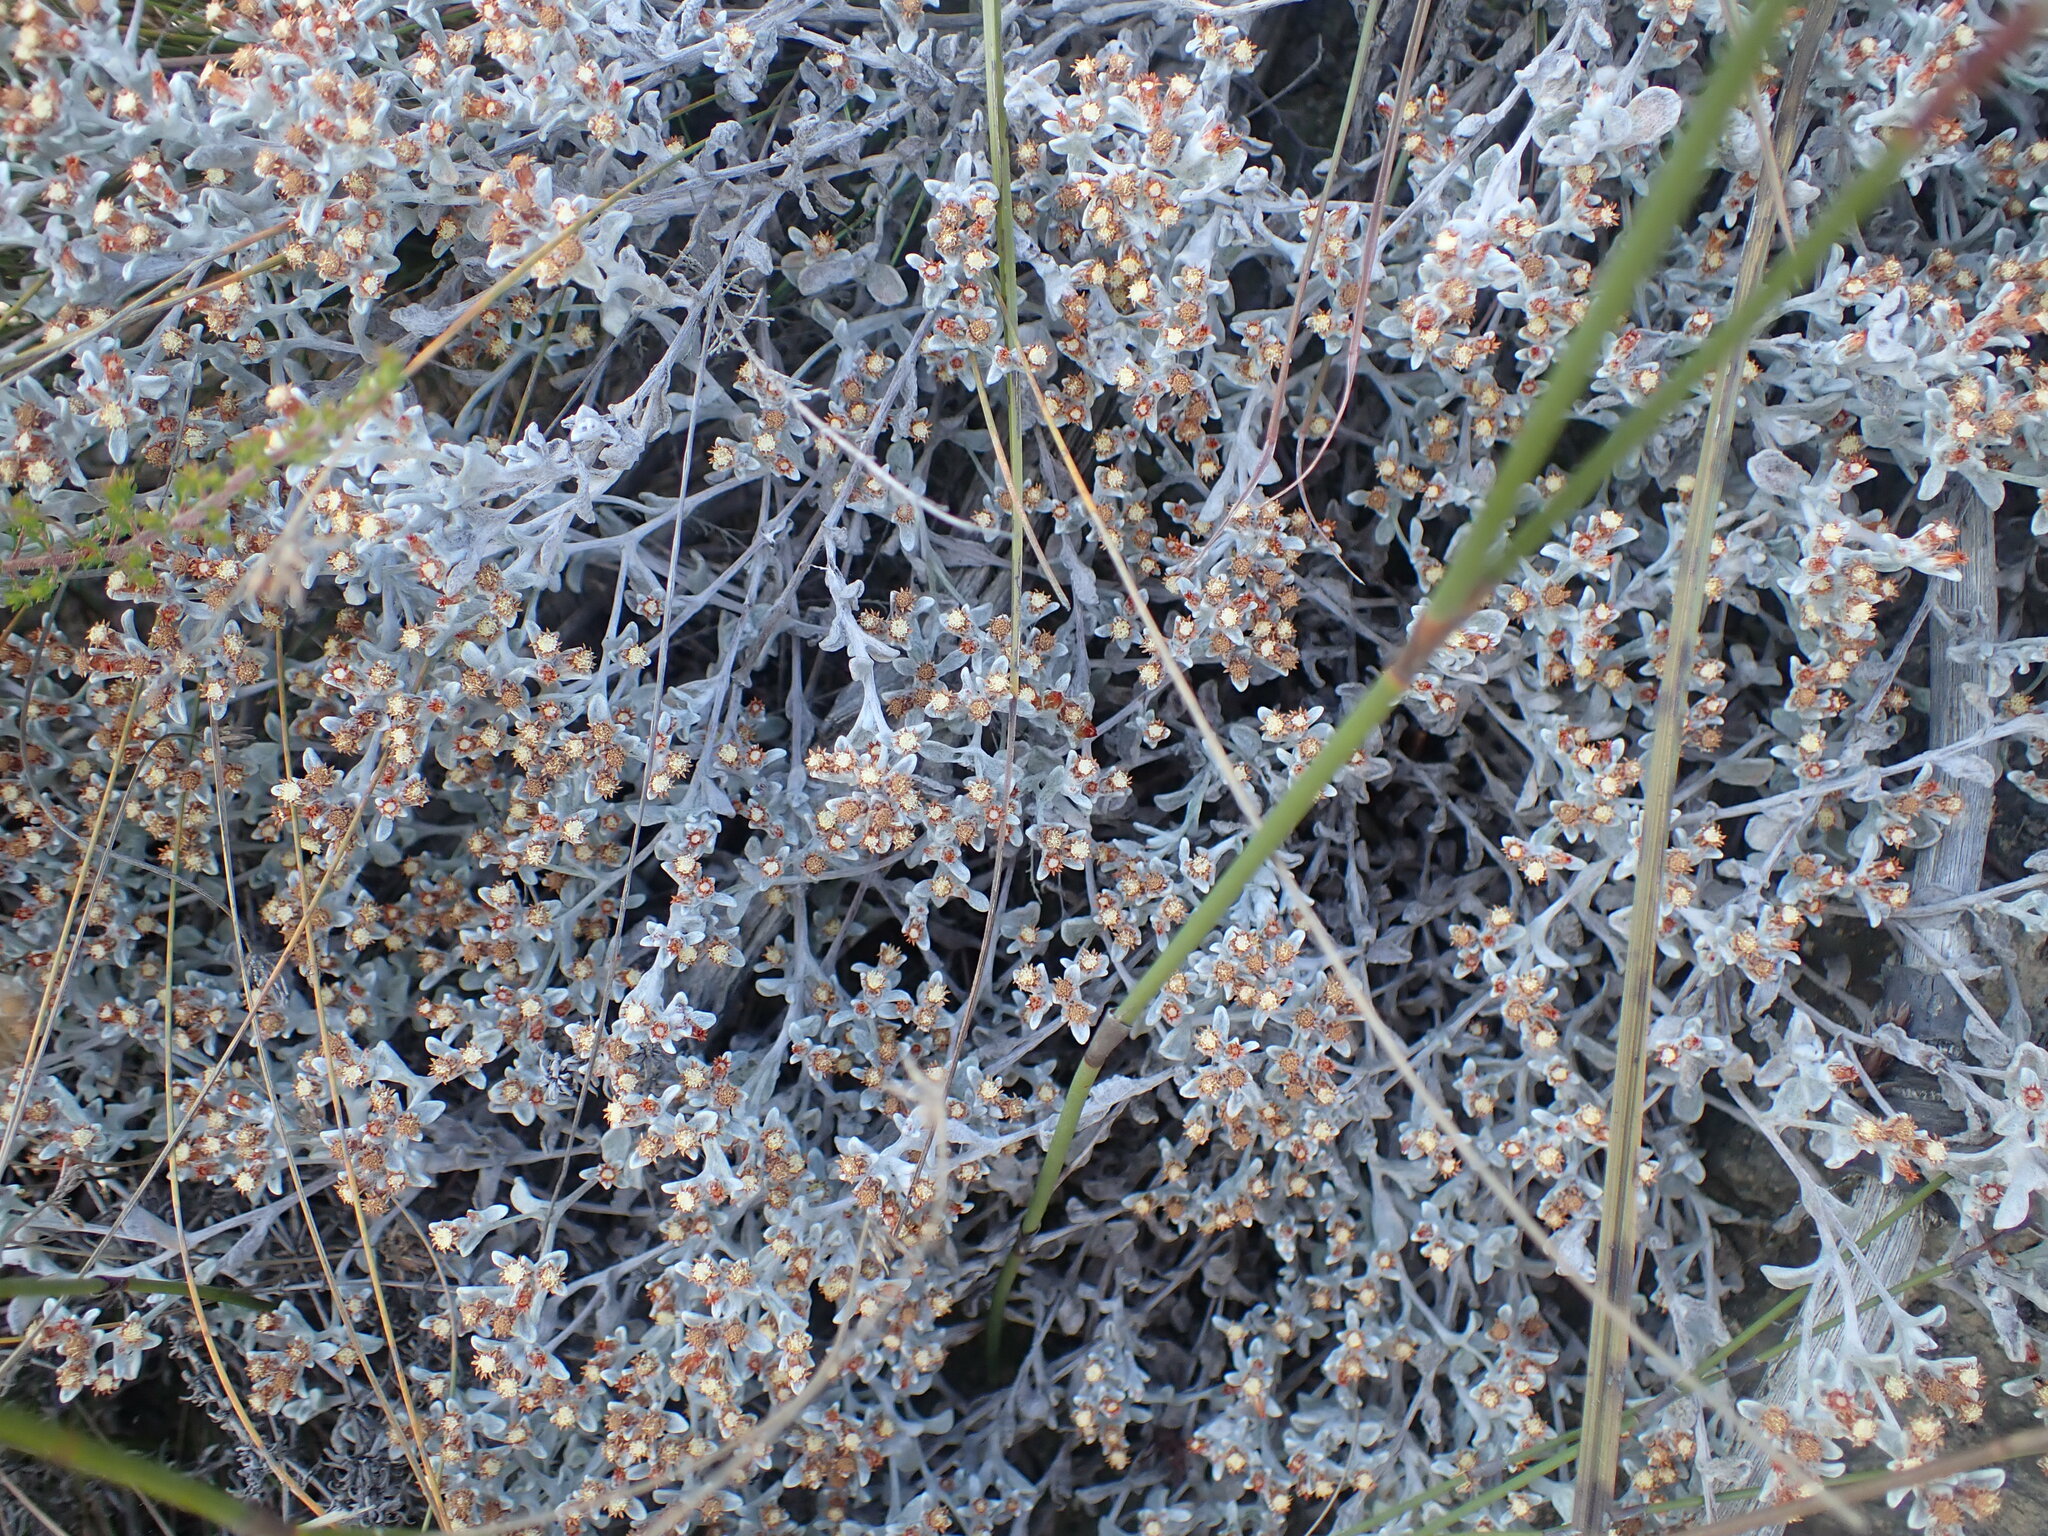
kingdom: Plantae
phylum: Tracheophyta
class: Magnoliopsida
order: Asterales
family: Asteraceae
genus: Helichrysum
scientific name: Helichrysum tinctum
